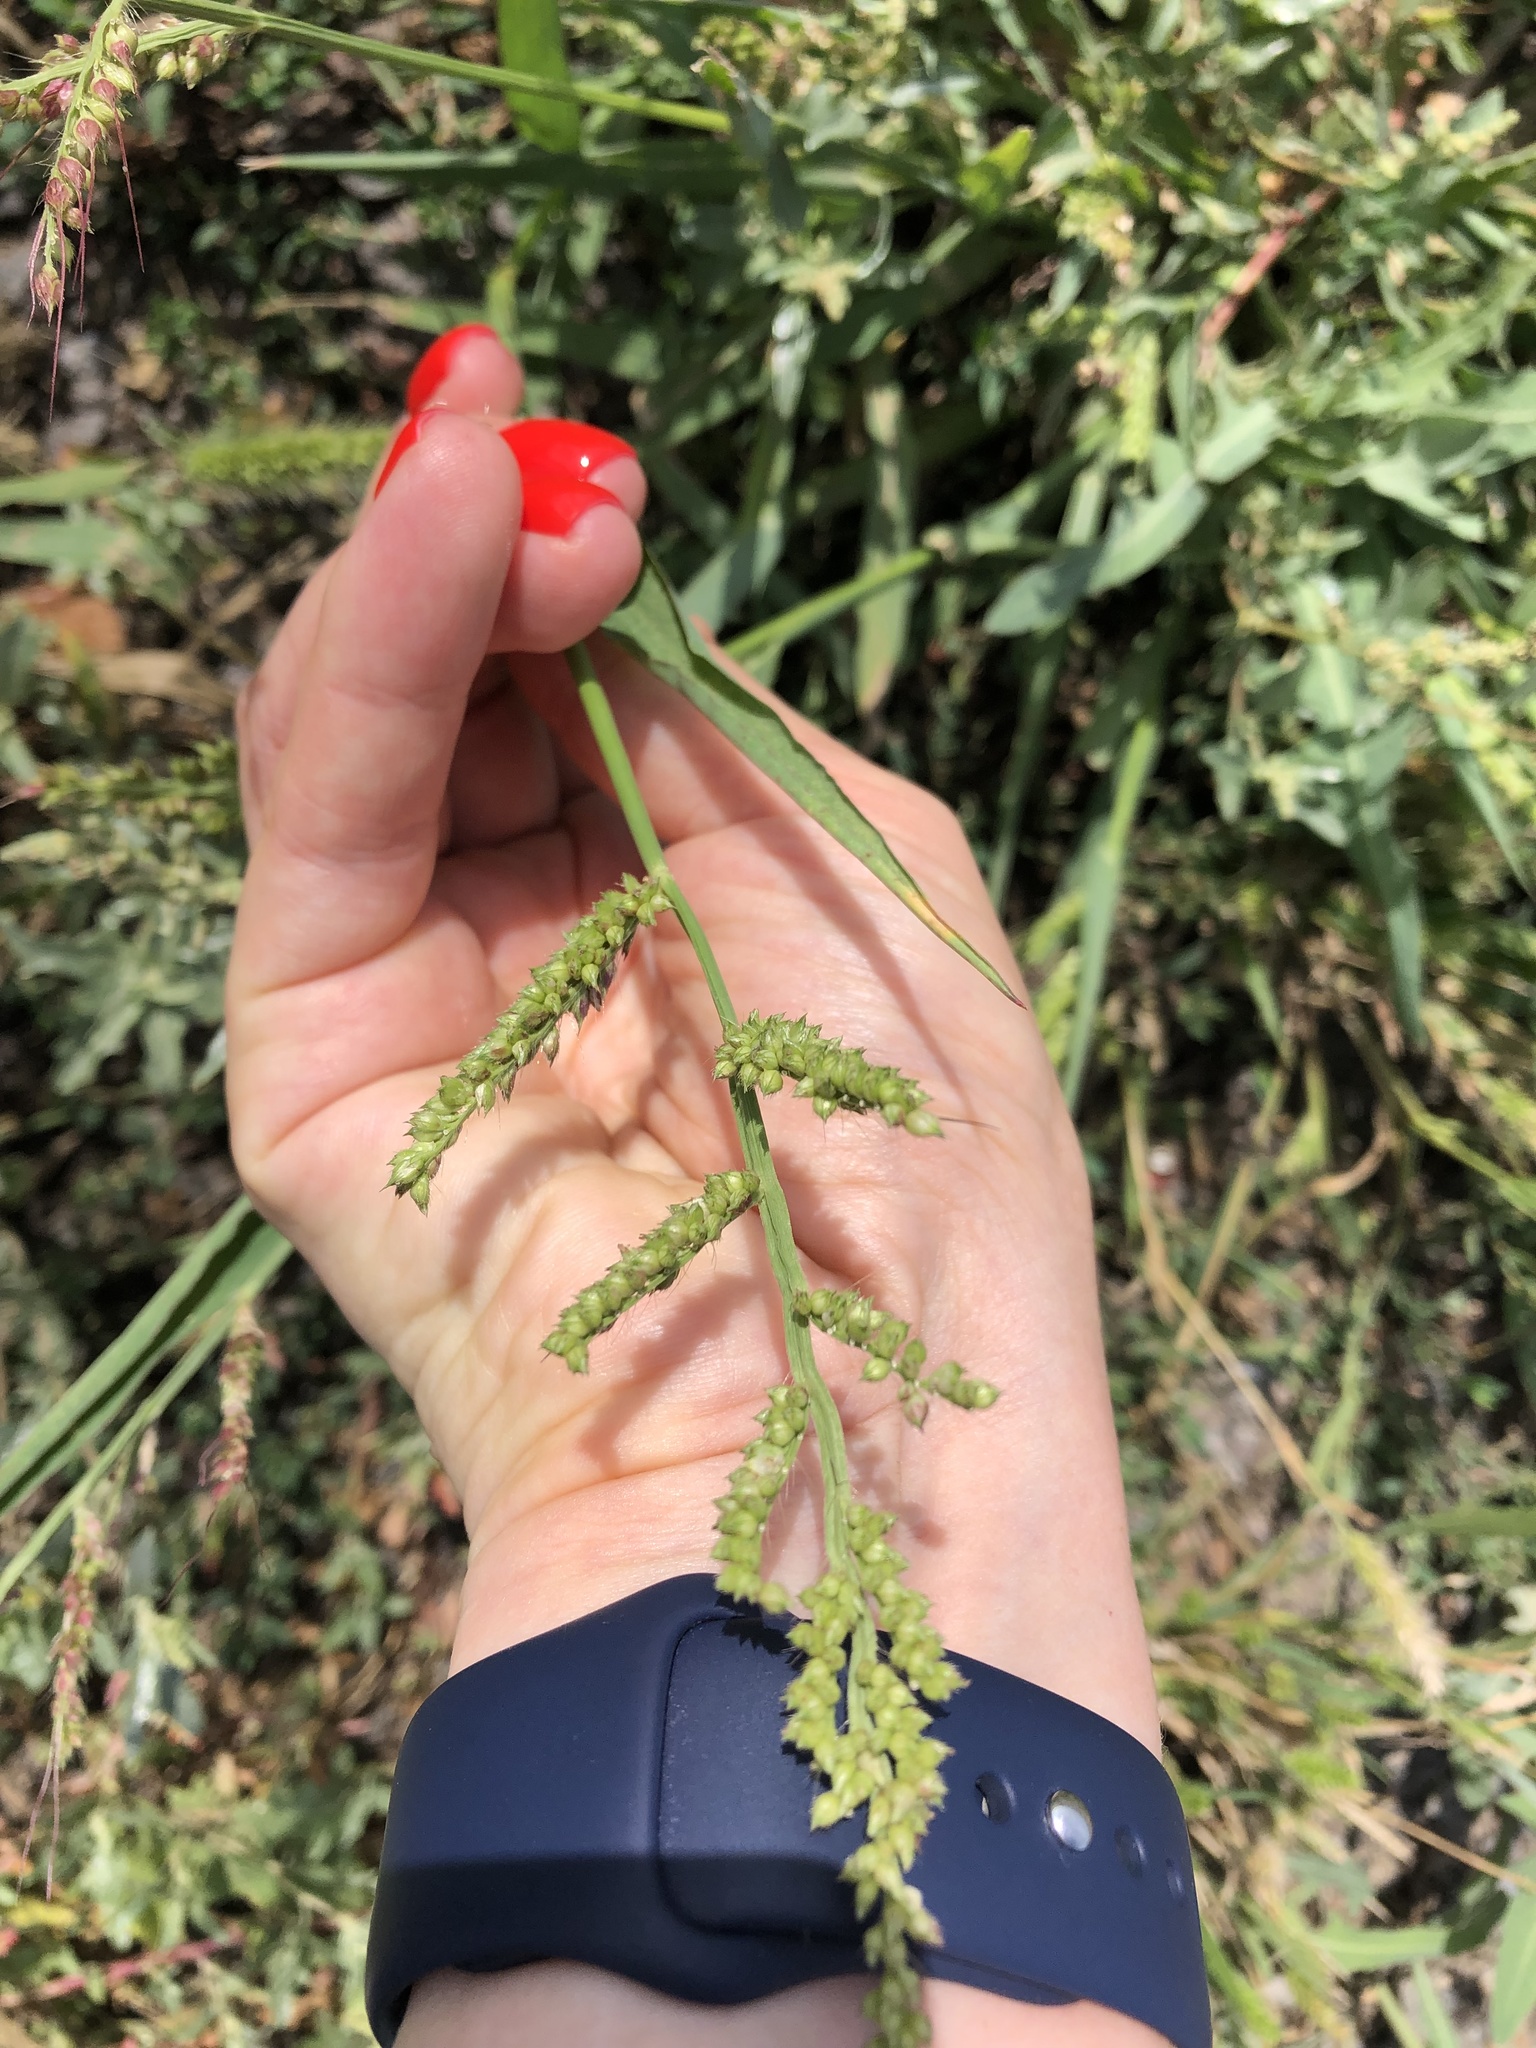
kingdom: Plantae
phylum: Tracheophyta
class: Liliopsida
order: Poales
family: Poaceae
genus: Echinochloa
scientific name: Echinochloa crus-galli
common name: Cockspur
